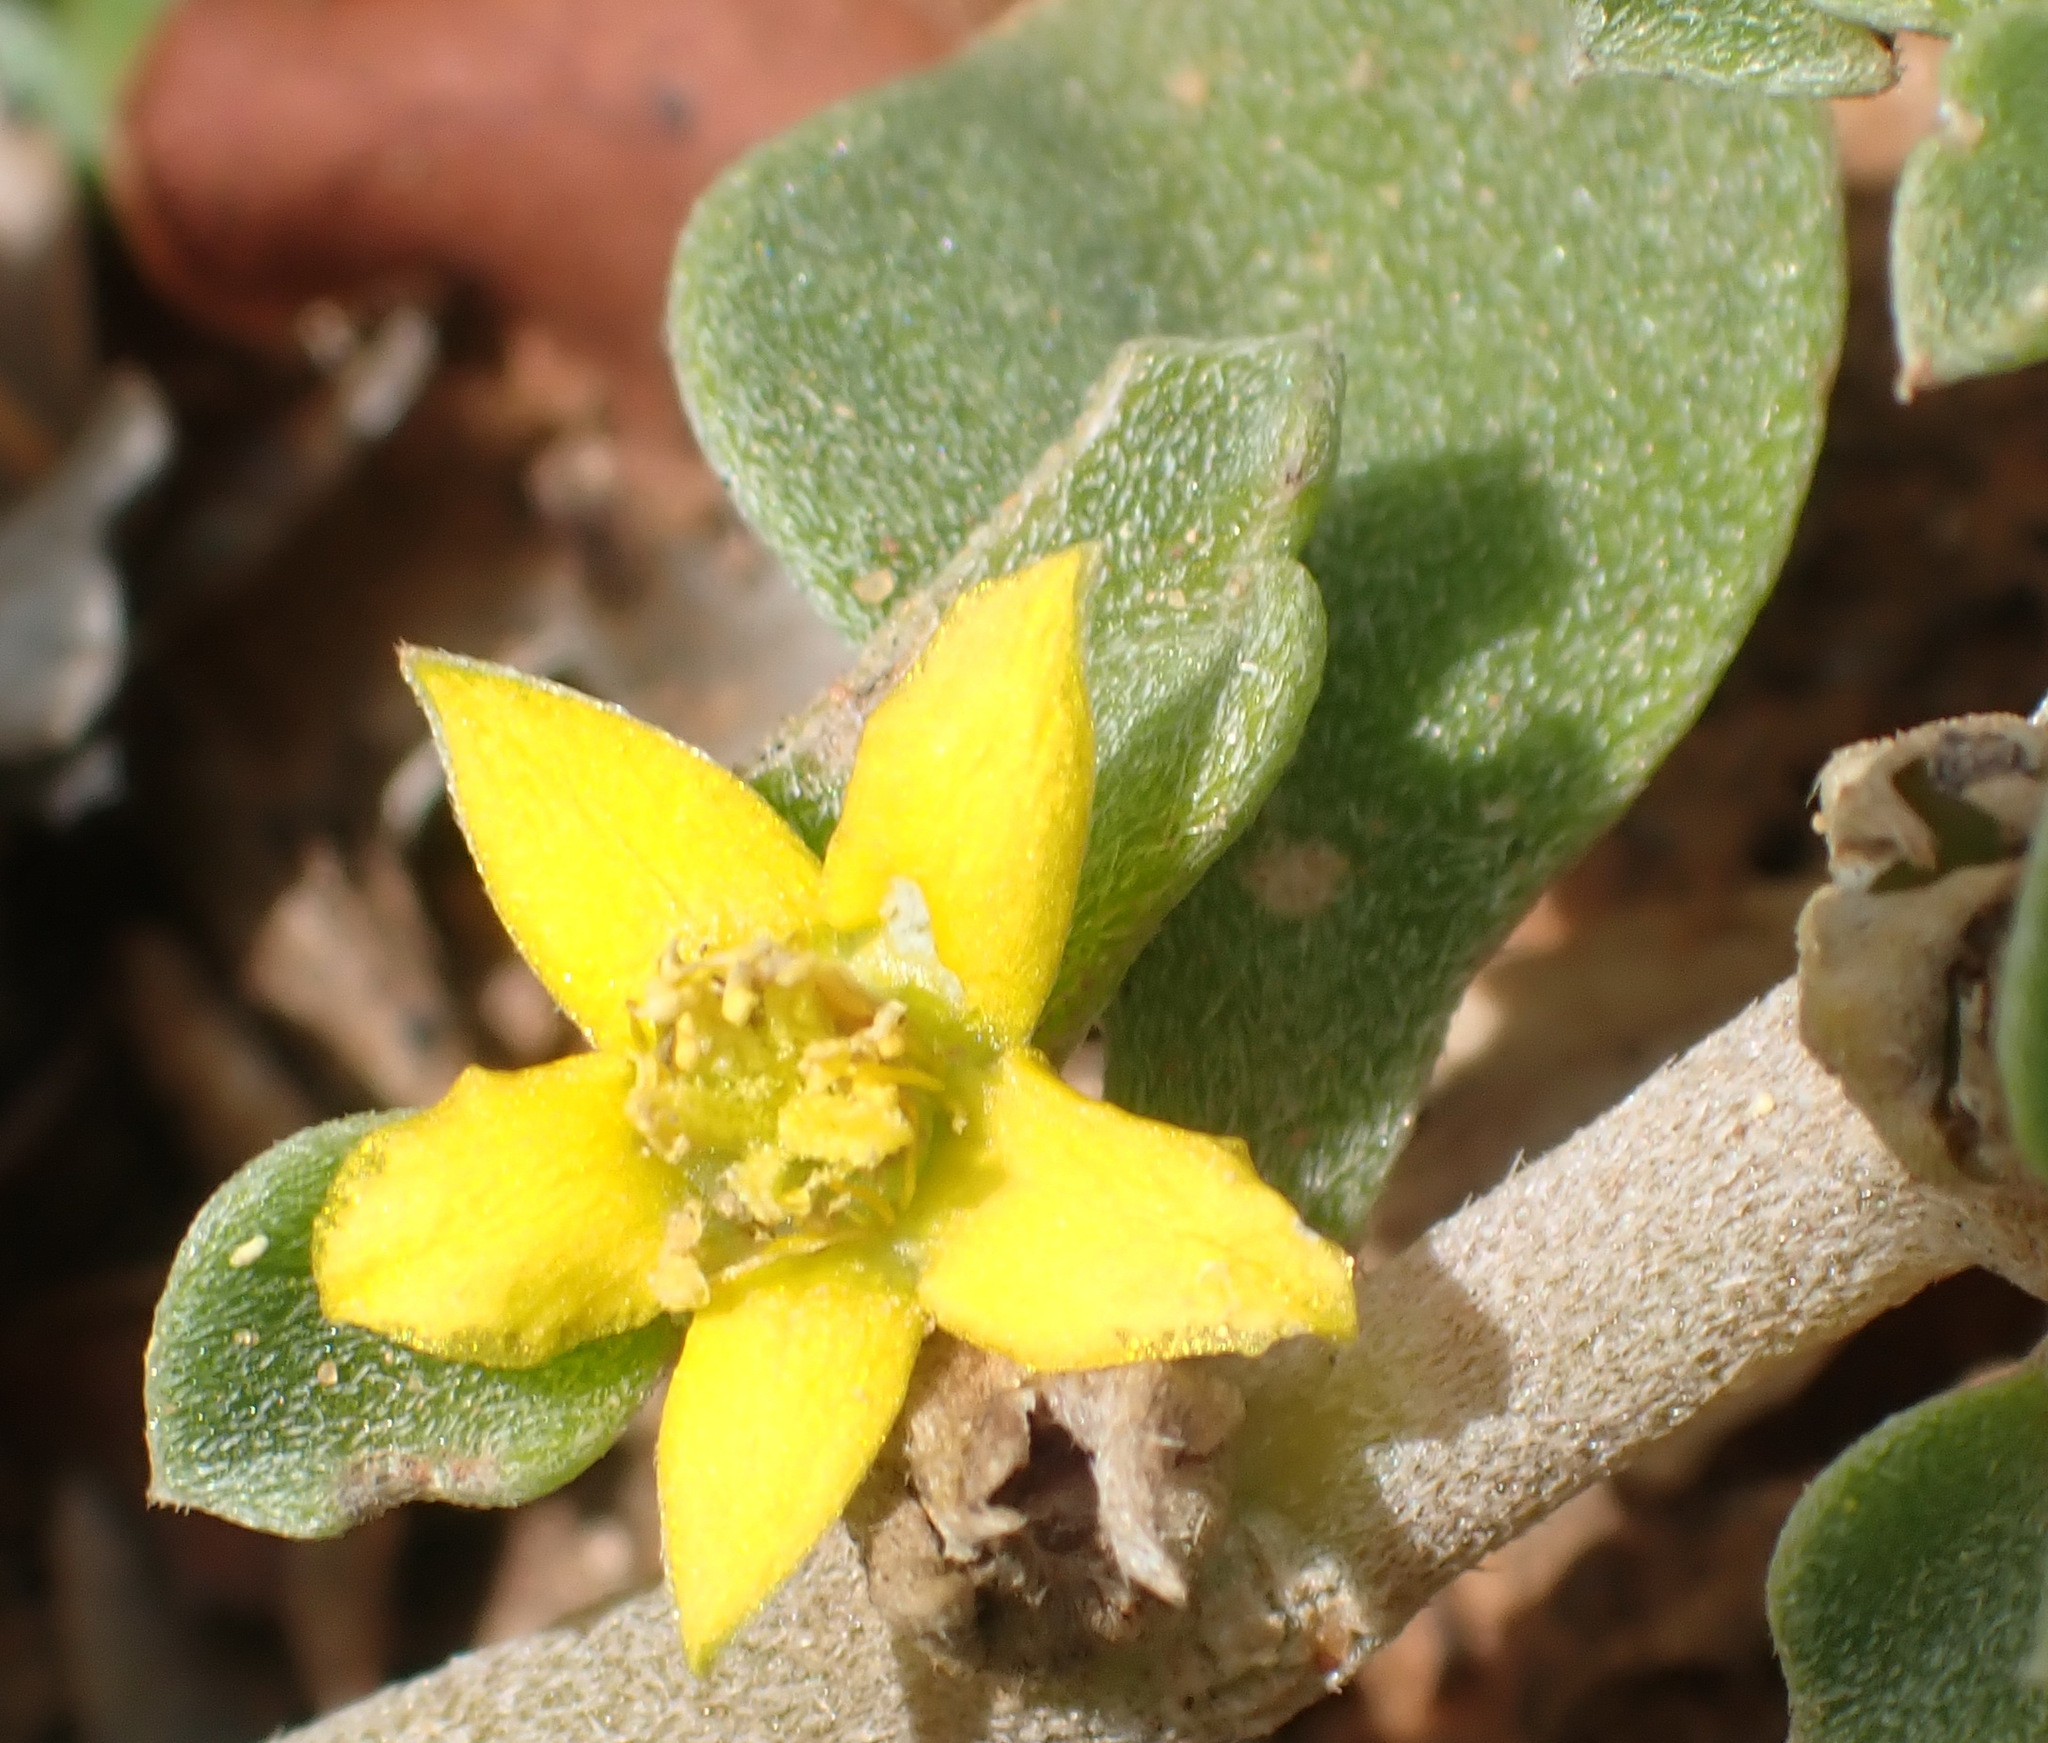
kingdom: Plantae
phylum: Tracheophyta
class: Magnoliopsida
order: Caryophyllales
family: Aizoaceae
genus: Aizoon
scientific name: Aizoon rigidum
